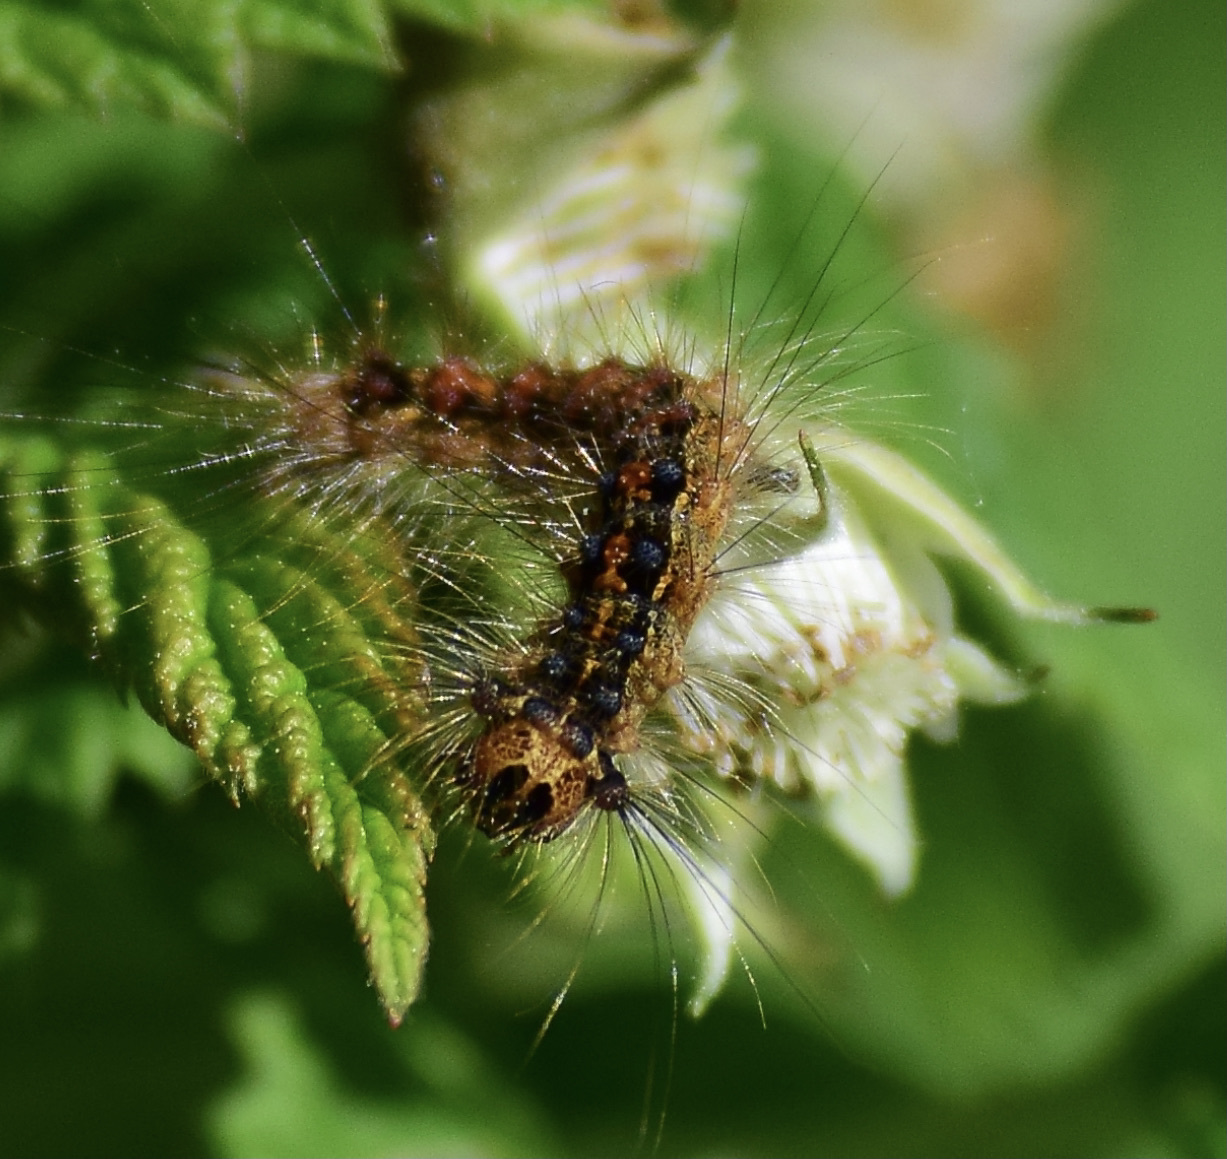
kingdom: Animalia
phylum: Arthropoda
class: Insecta
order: Lepidoptera
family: Erebidae
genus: Lymantria
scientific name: Lymantria dispar
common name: Gypsy moth
